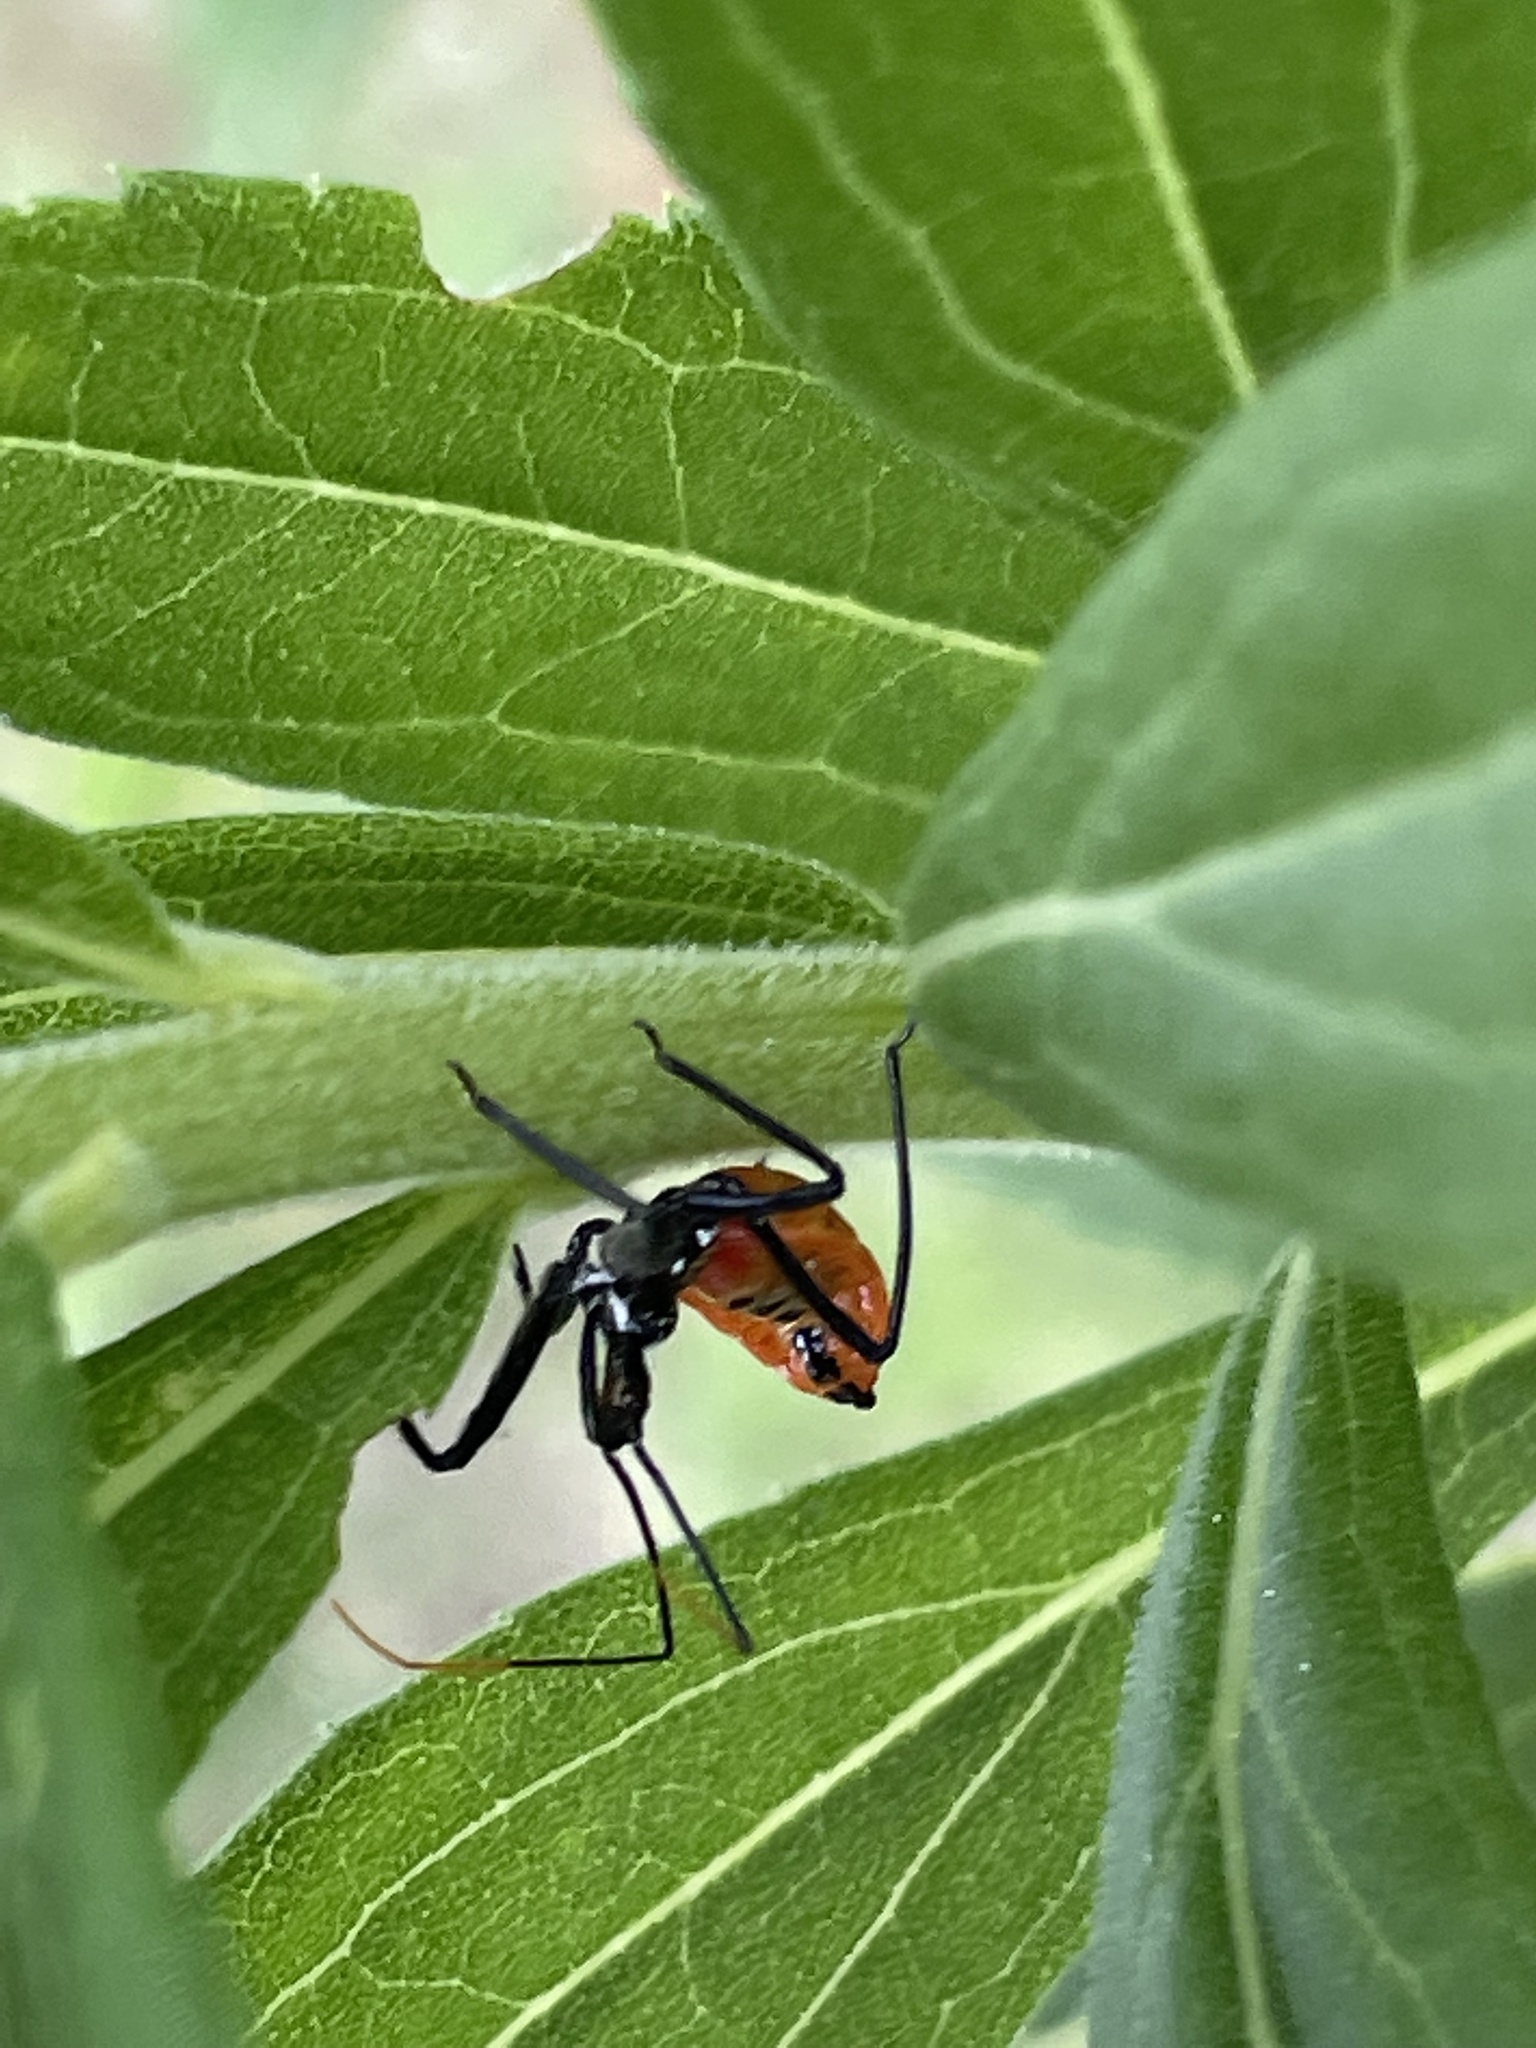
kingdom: Animalia
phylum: Arthropoda
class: Insecta
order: Hemiptera
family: Reduviidae
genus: Arilus
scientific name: Arilus cristatus
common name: North american wheel bug
